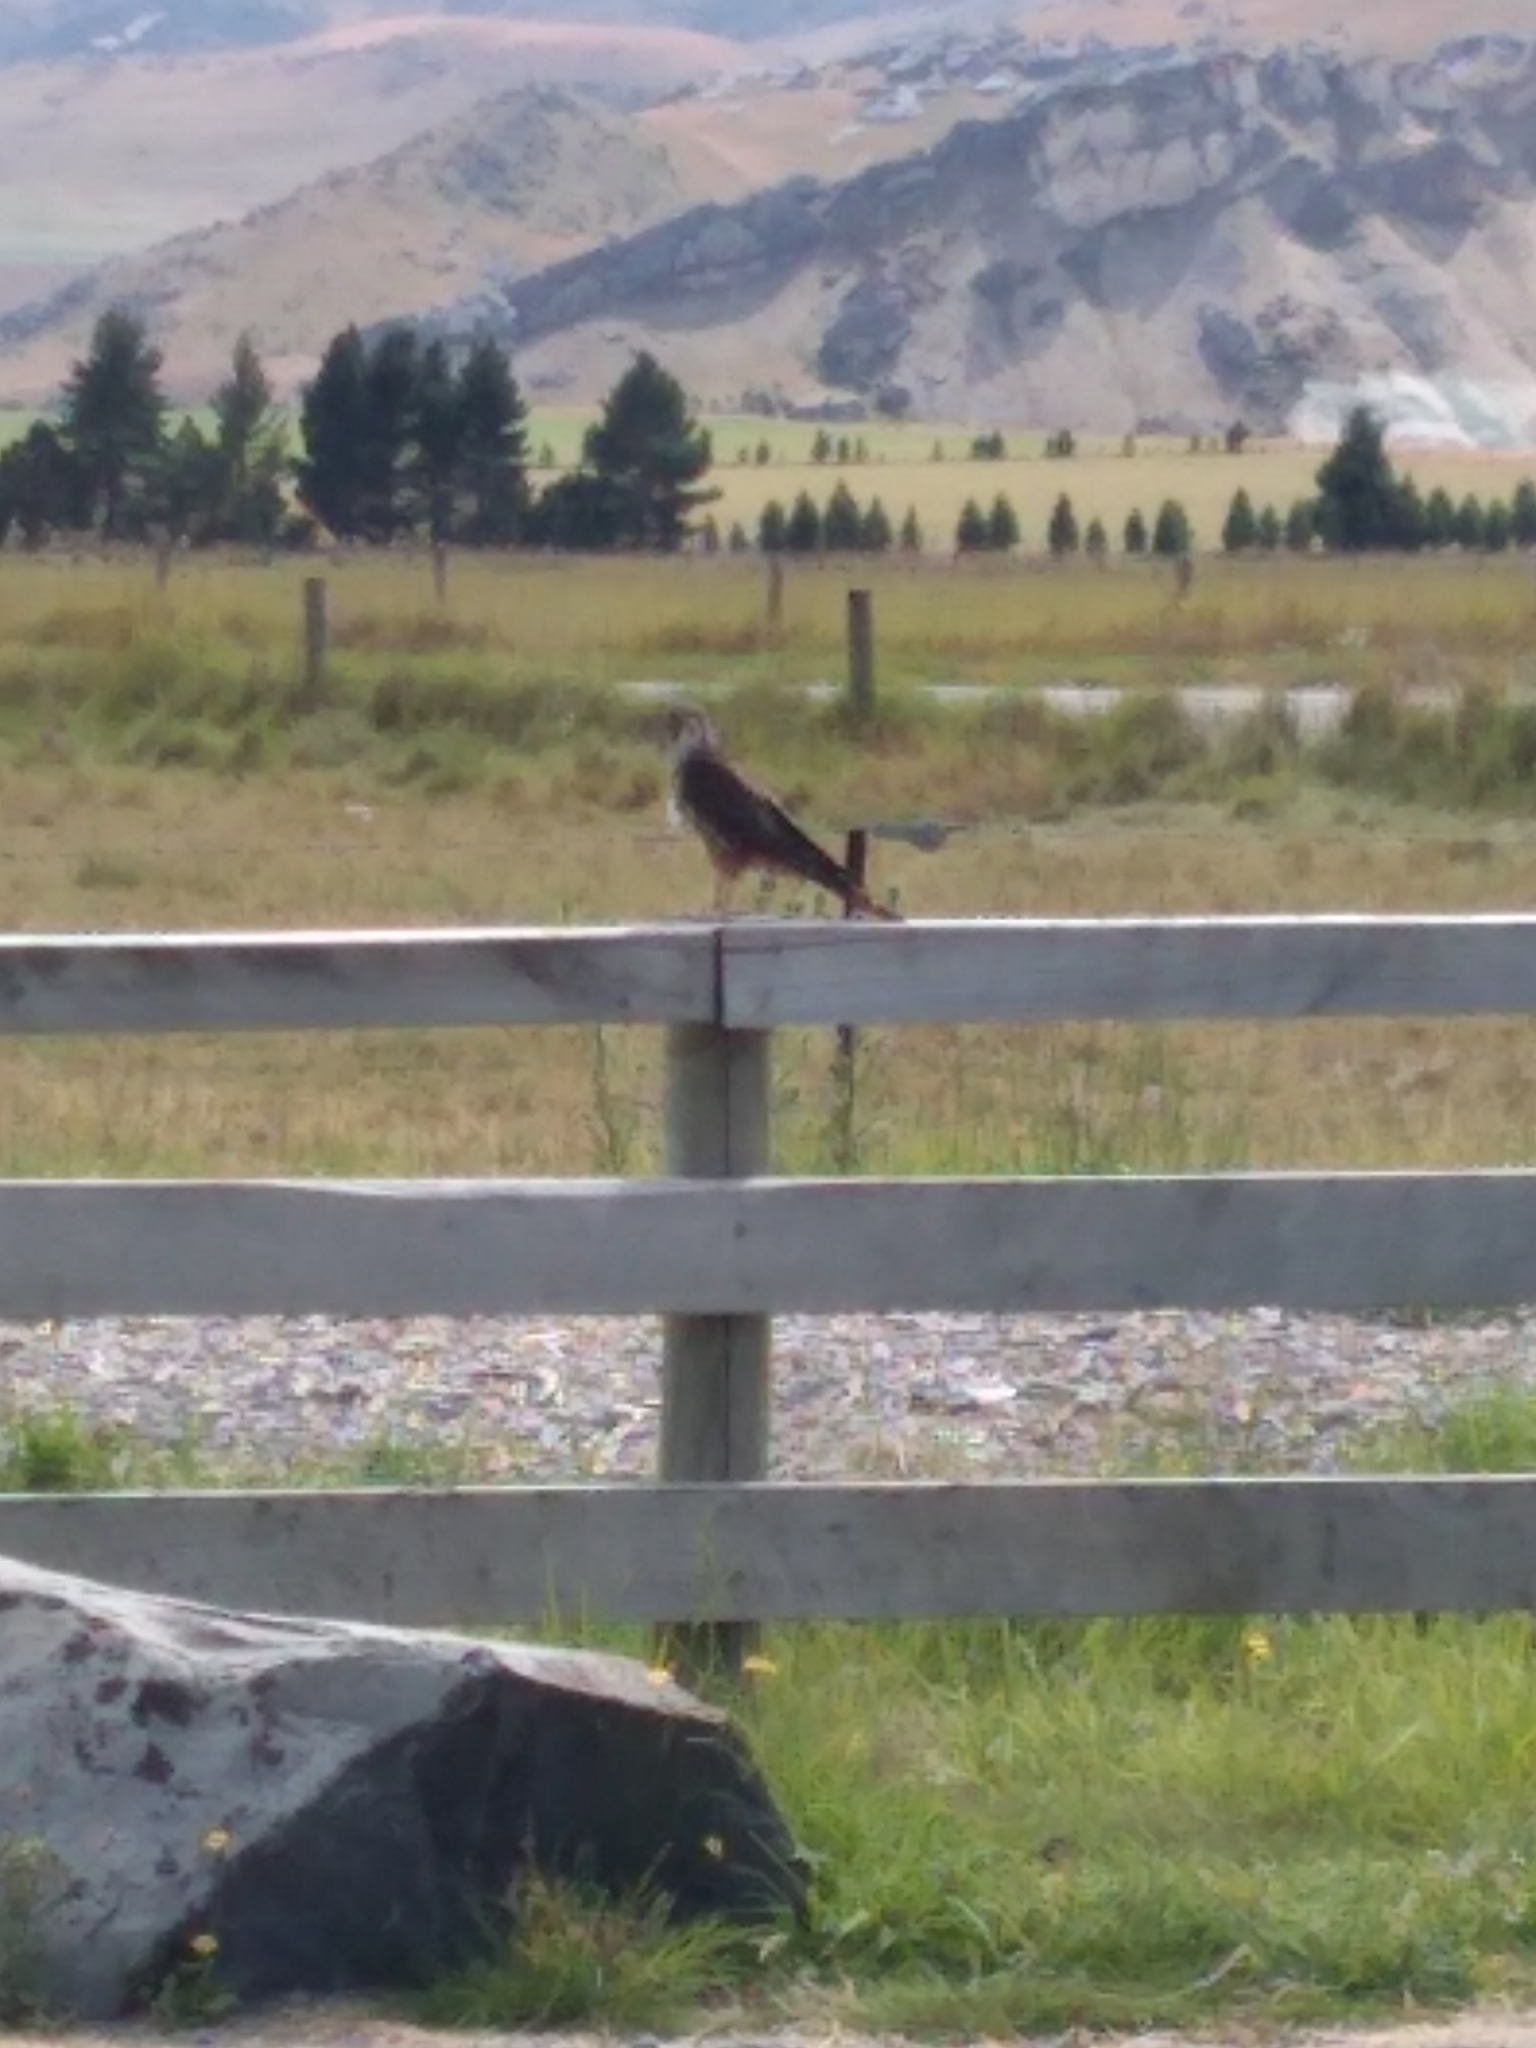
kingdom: Animalia
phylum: Chordata
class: Aves
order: Falconiformes
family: Falconidae
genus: Falco
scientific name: Falco novaeseelandiae
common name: New zealand falcon
